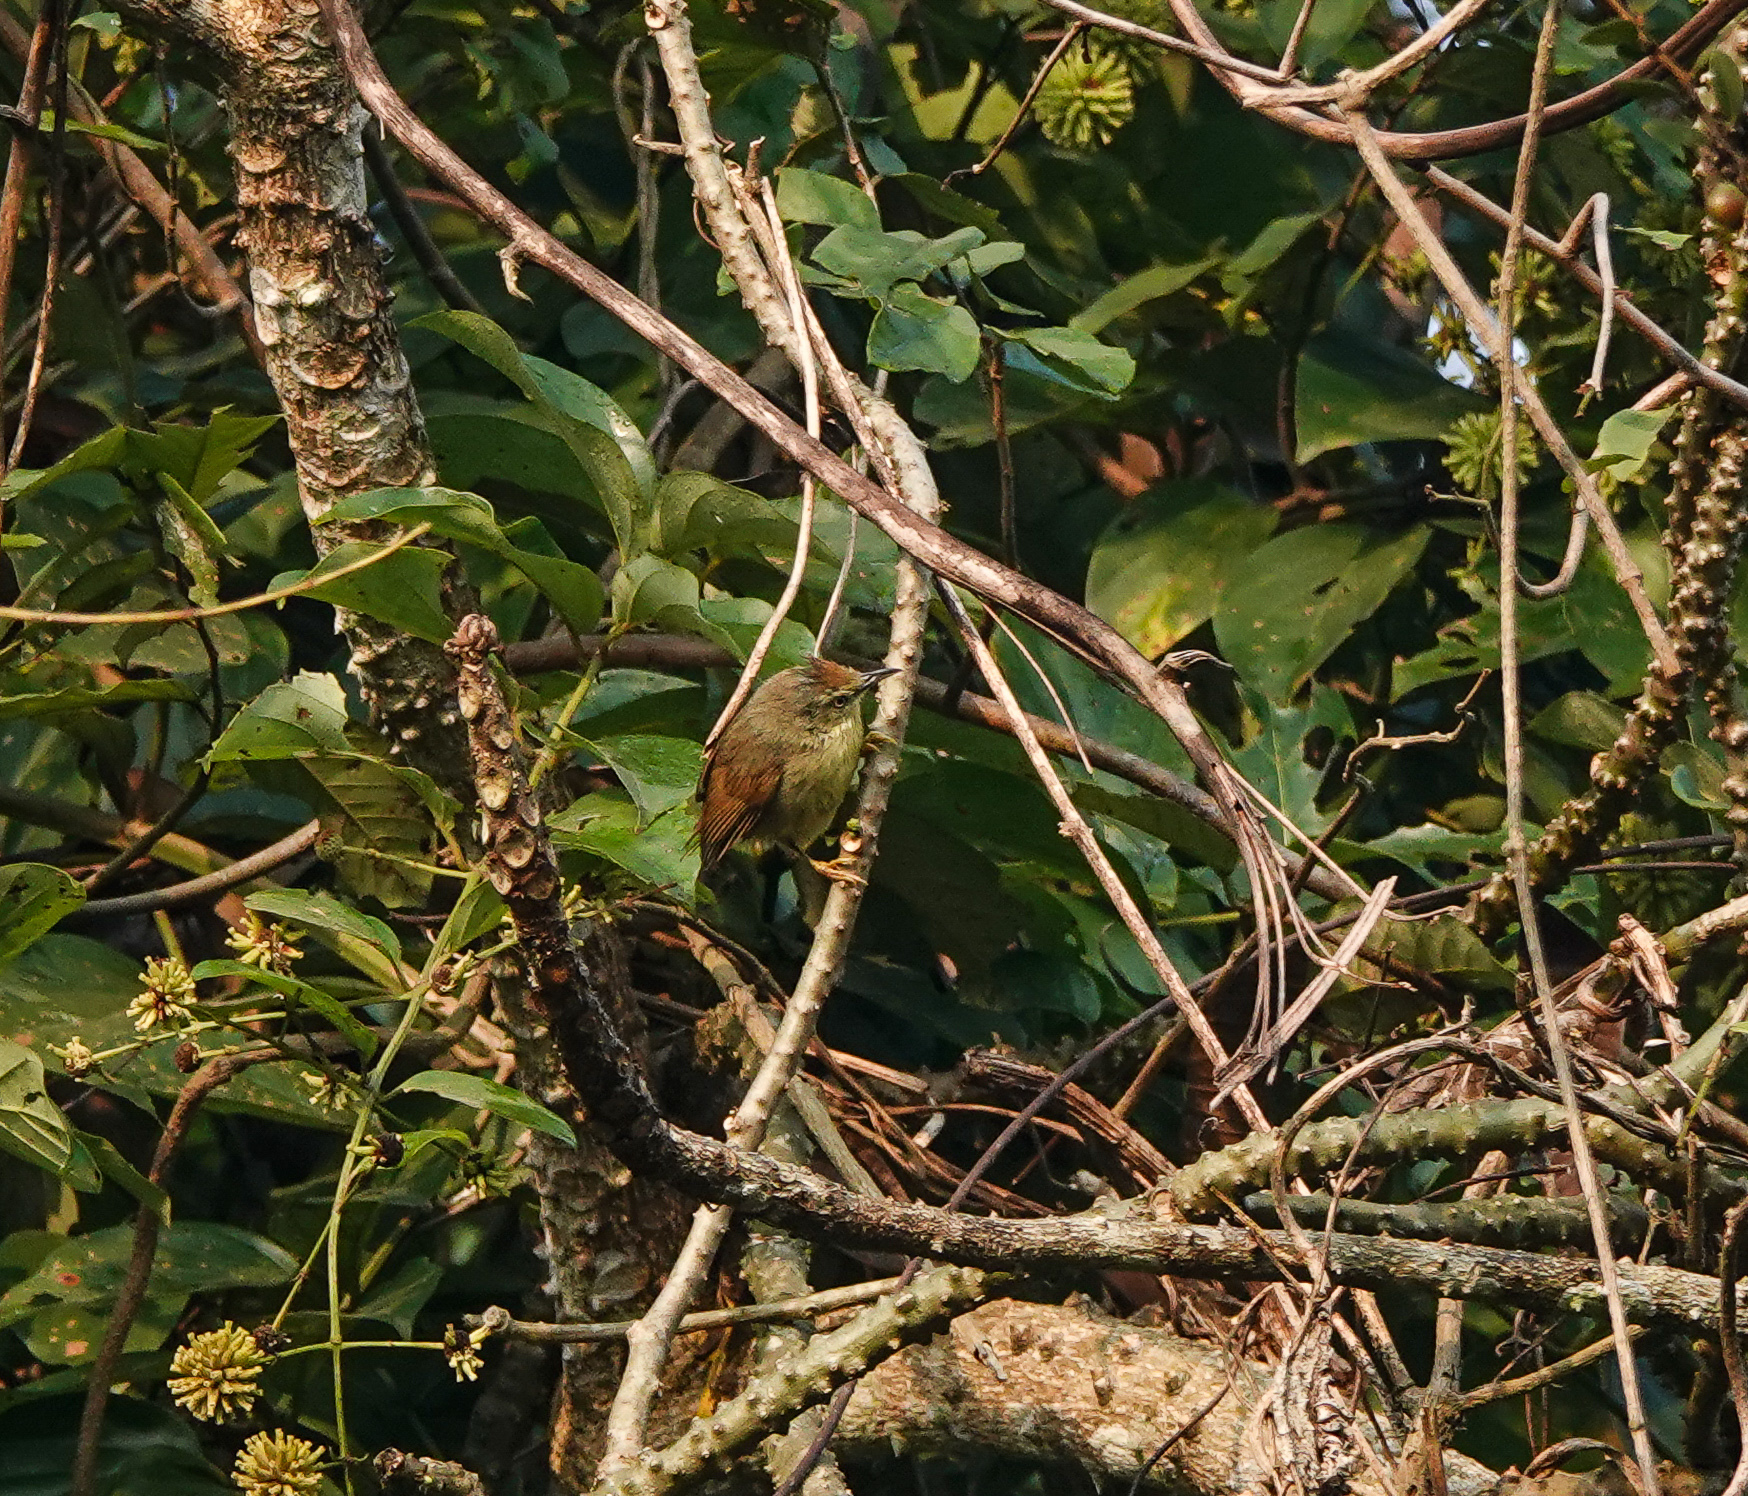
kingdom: Animalia
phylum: Chordata
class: Aves
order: Passeriformes
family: Timaliidae
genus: Macronus
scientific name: Macronus gularis
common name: Striped tit-babbler
